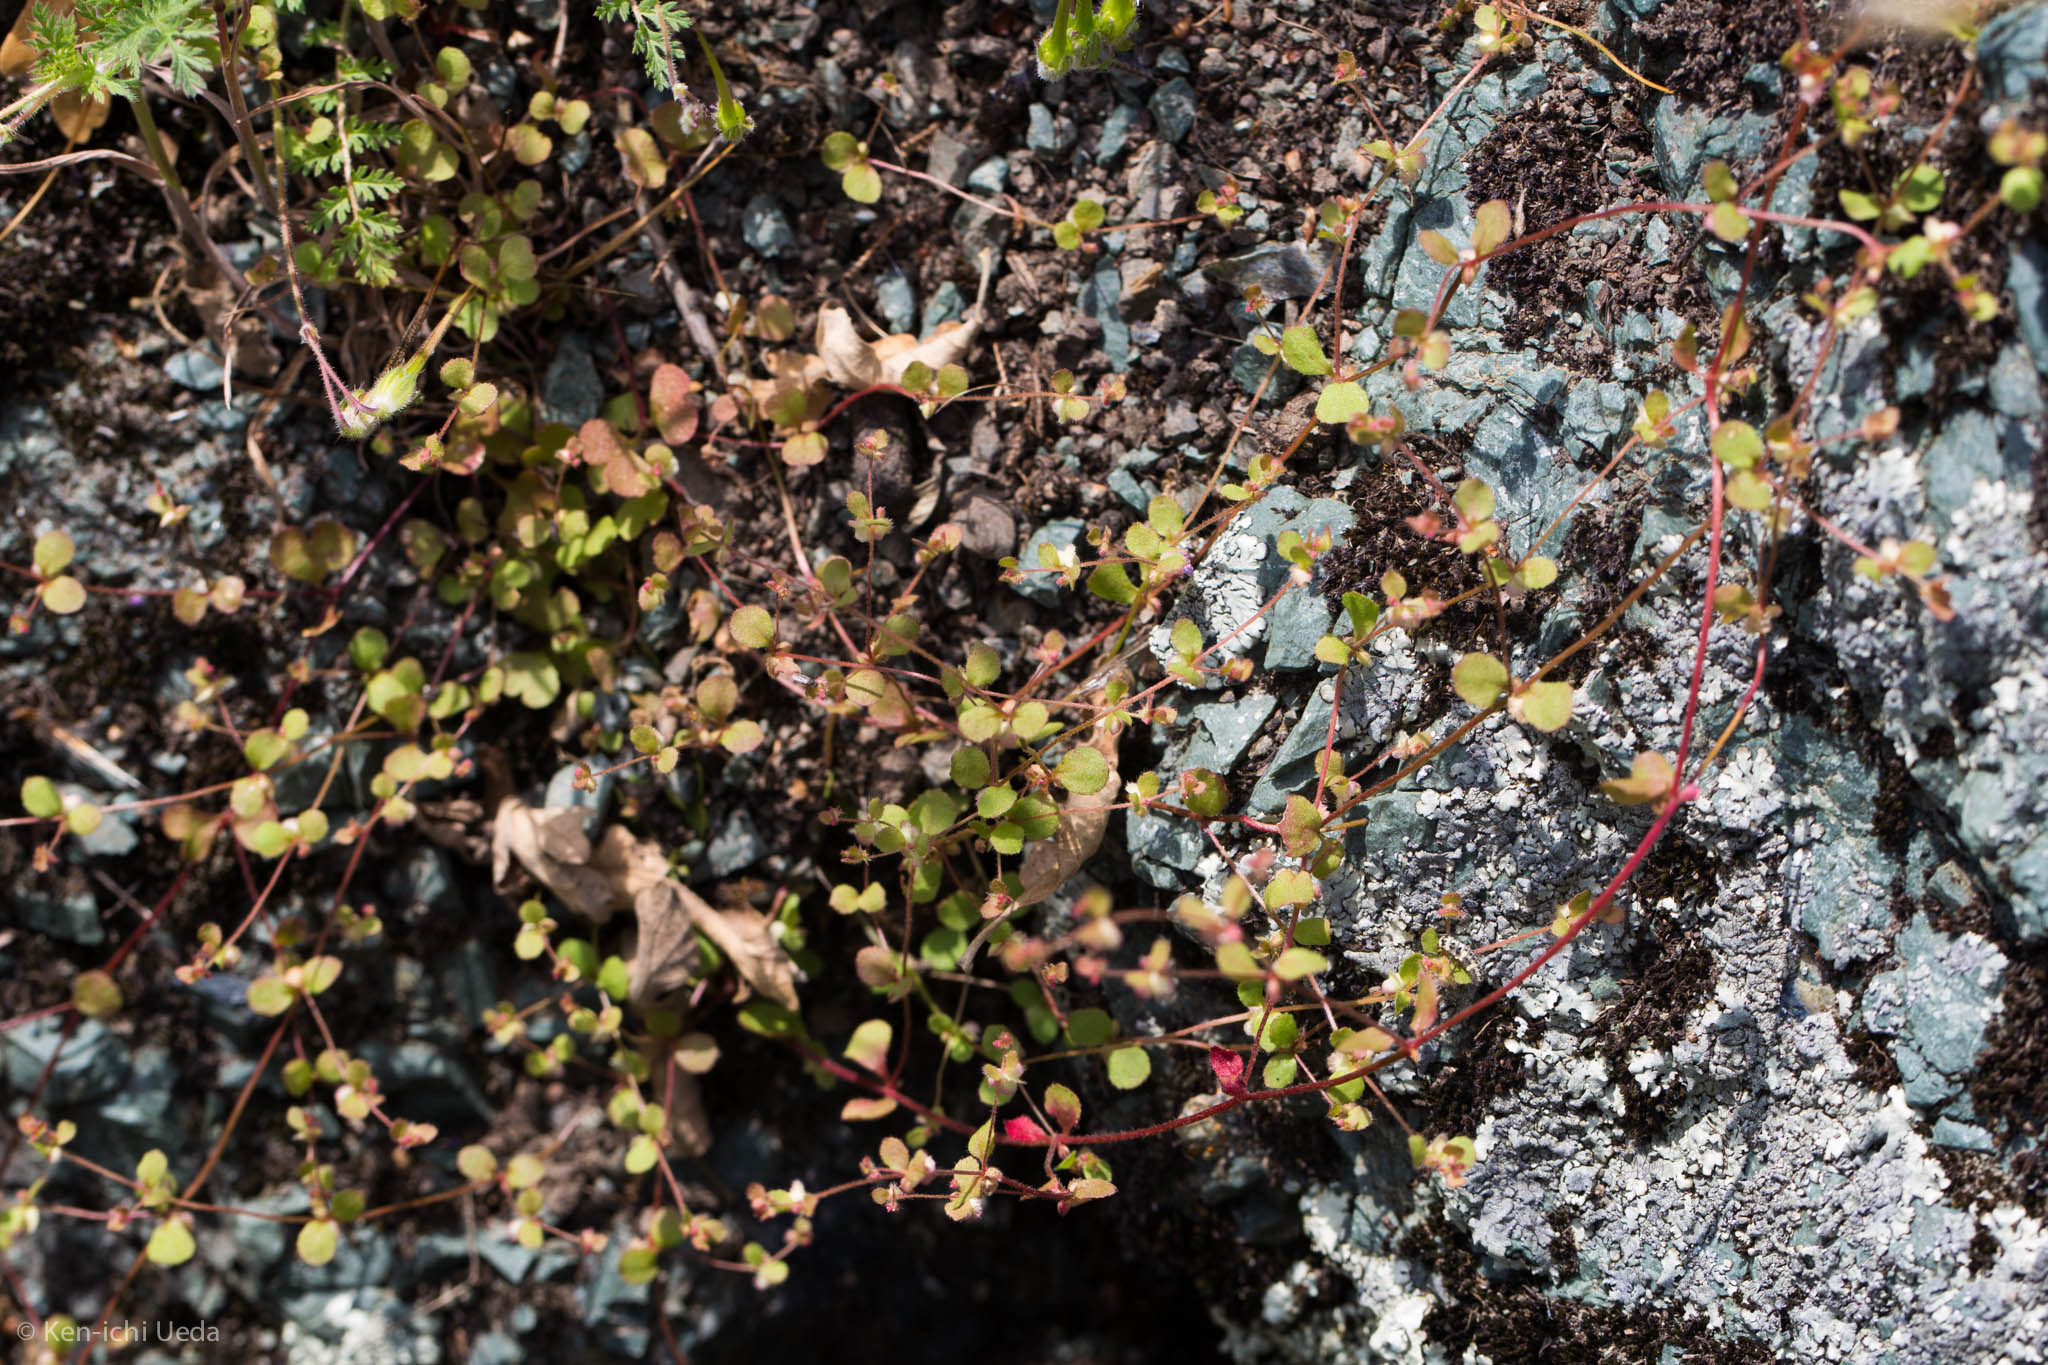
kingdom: Plantae
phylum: Tracheophyta
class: Magnoliopsida
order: Caryophyllales
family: Polygonaceae
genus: Pterostegia
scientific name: Pterostegia drymarioides
